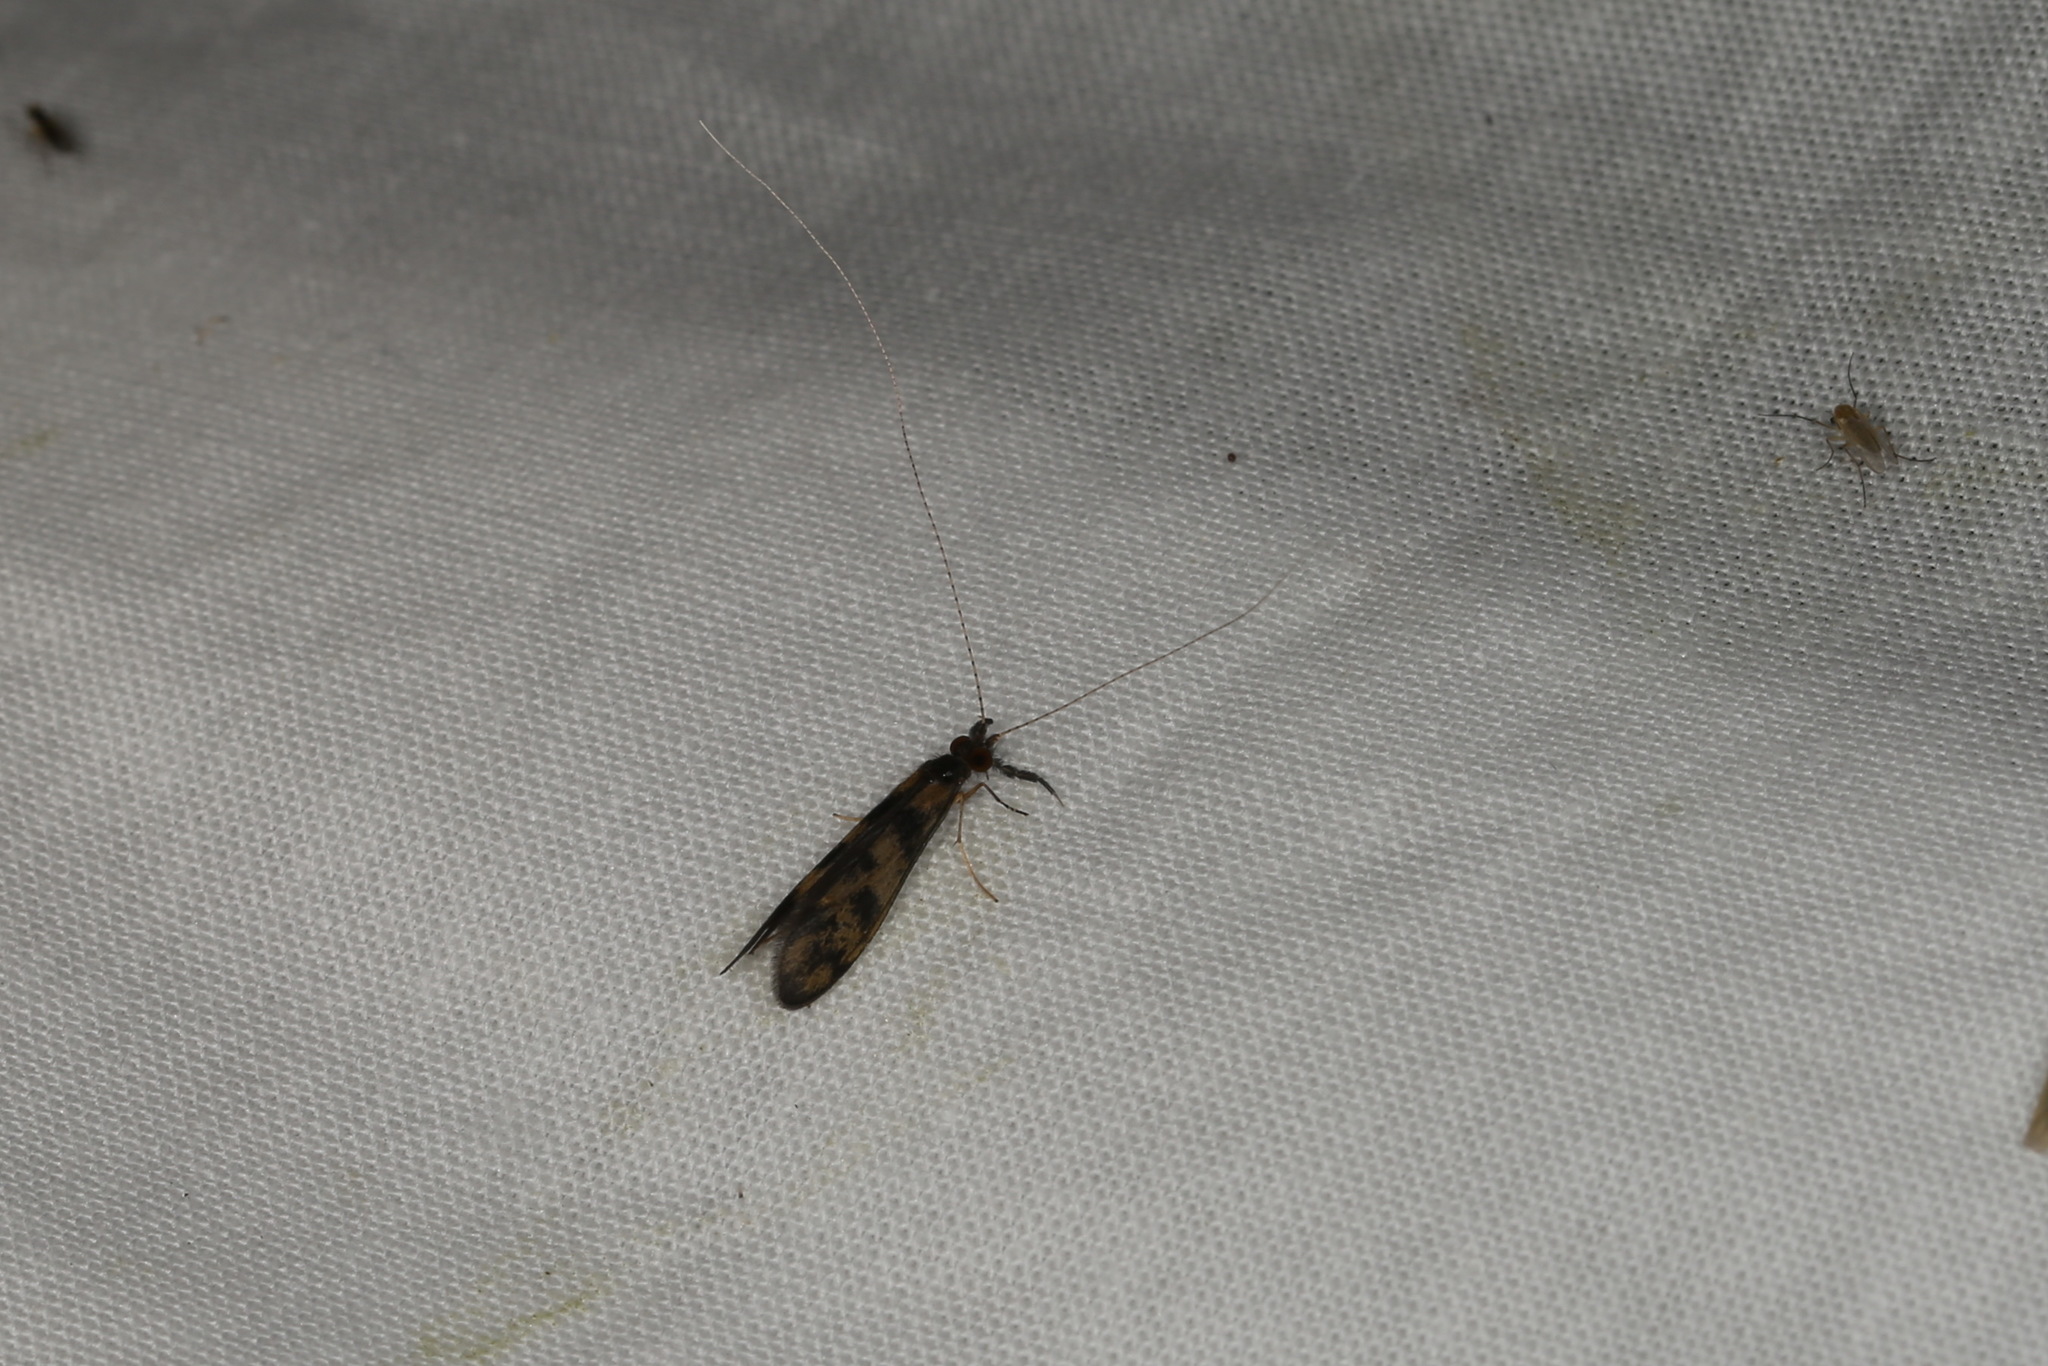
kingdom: Animalia
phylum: Arthropoda
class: Insecta
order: Trichoptera
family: Leptoceridae
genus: Mystacides
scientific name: Mystacides longicornis
